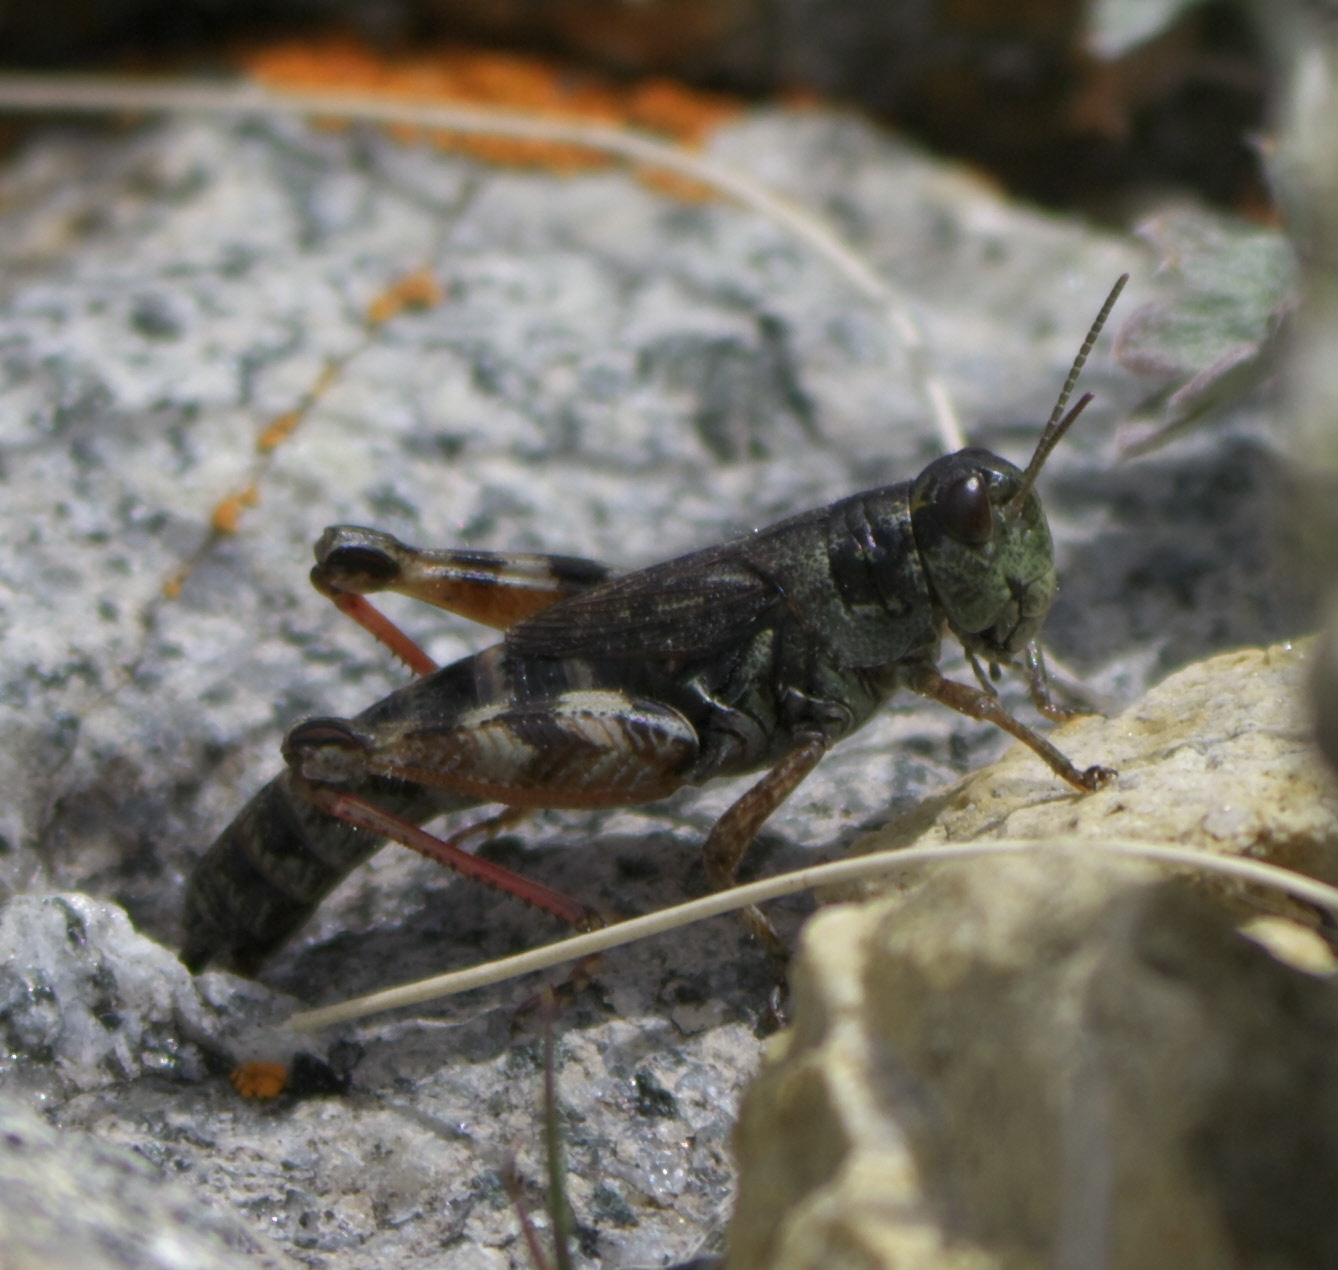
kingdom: Animalia
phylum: Arthropoda
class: Insecta
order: Orthoptera
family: Acrididae
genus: Melanoplus
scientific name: Melanoplus gothicus
